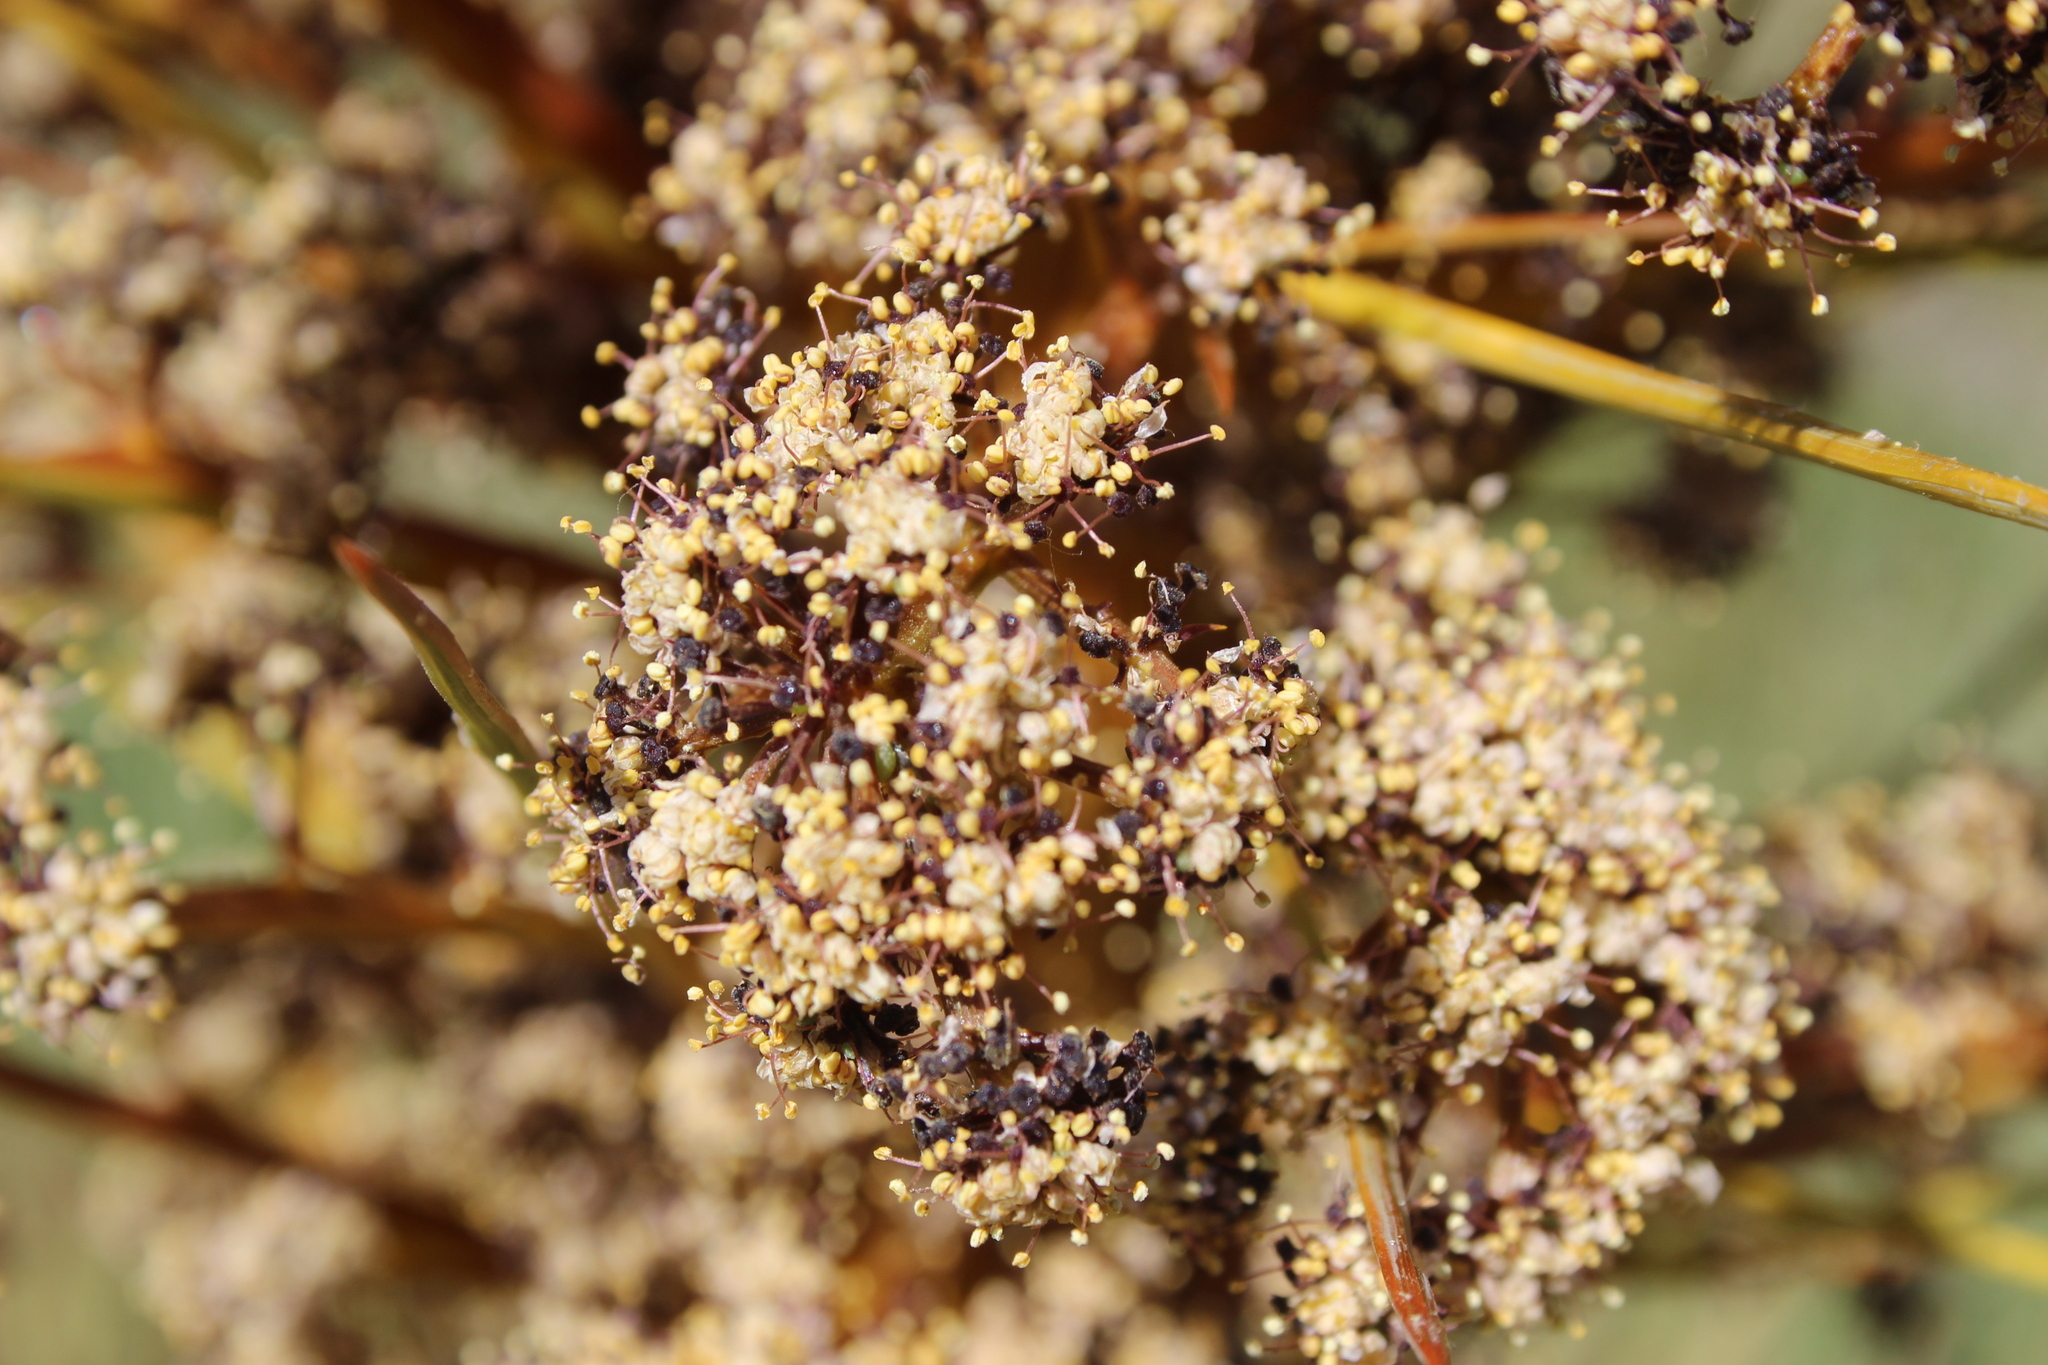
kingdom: Plantae
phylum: Tracheophyta
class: Magnoliopsida
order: Apiales
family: Apiaceae
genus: Aciphylla
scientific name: Aciphylla aurea
